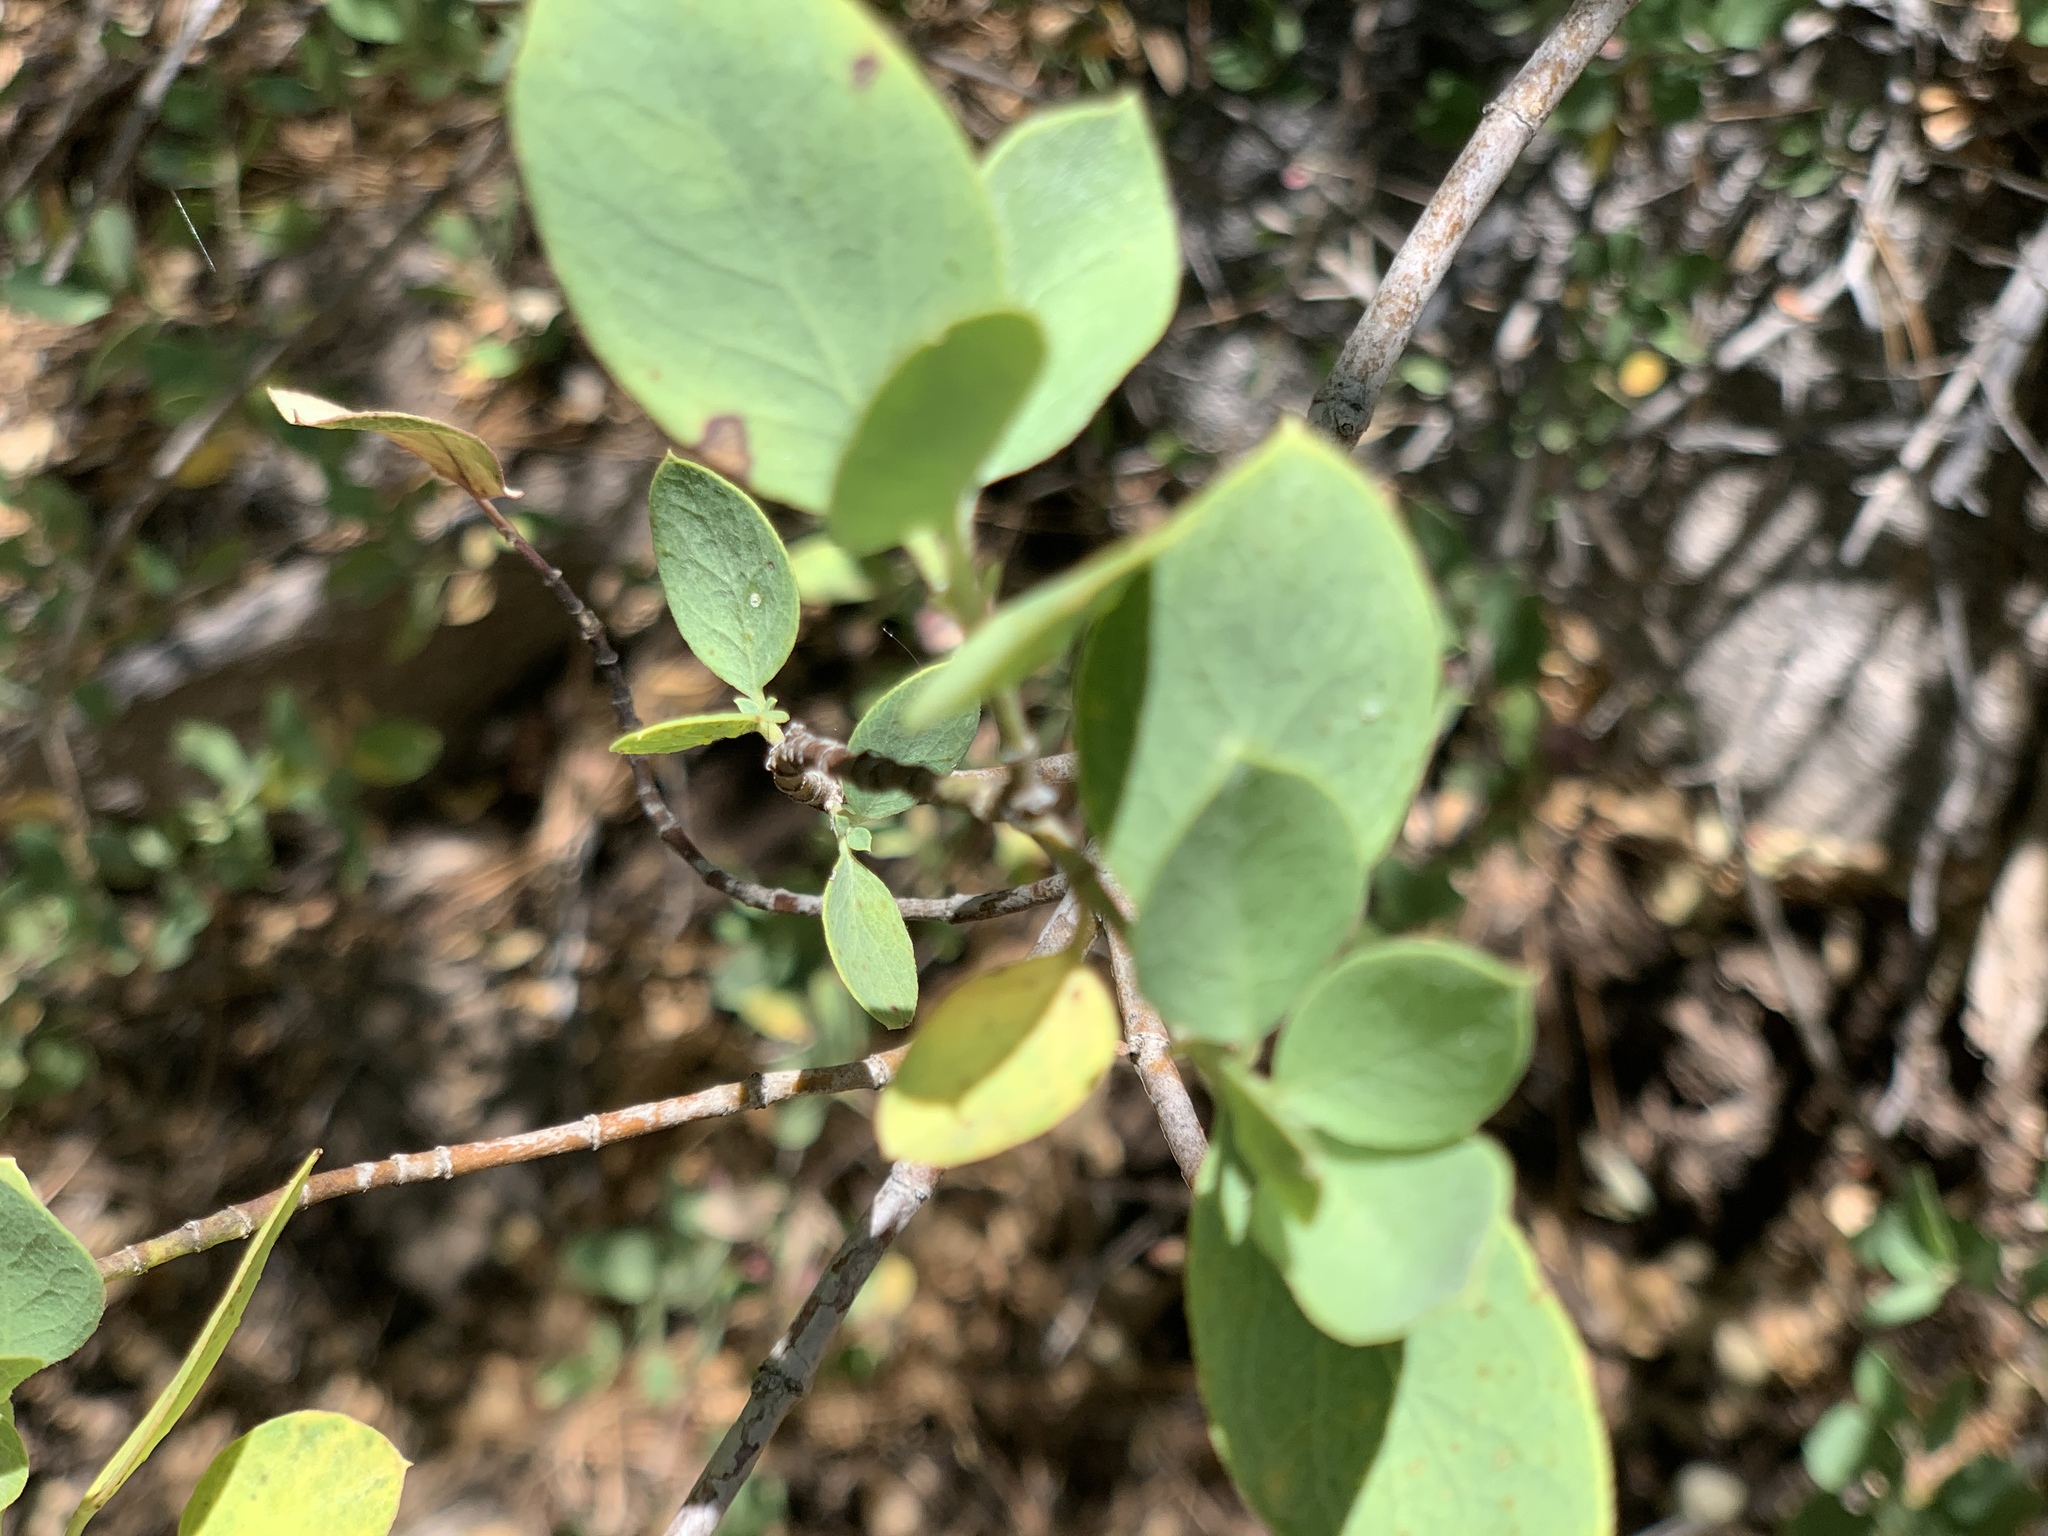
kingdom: Plantae
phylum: Tracheophyta
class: Magnoliopsida
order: Garryales
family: Garryaceae
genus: Garrya
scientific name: Garrya wrightii
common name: Wright's silktassel
